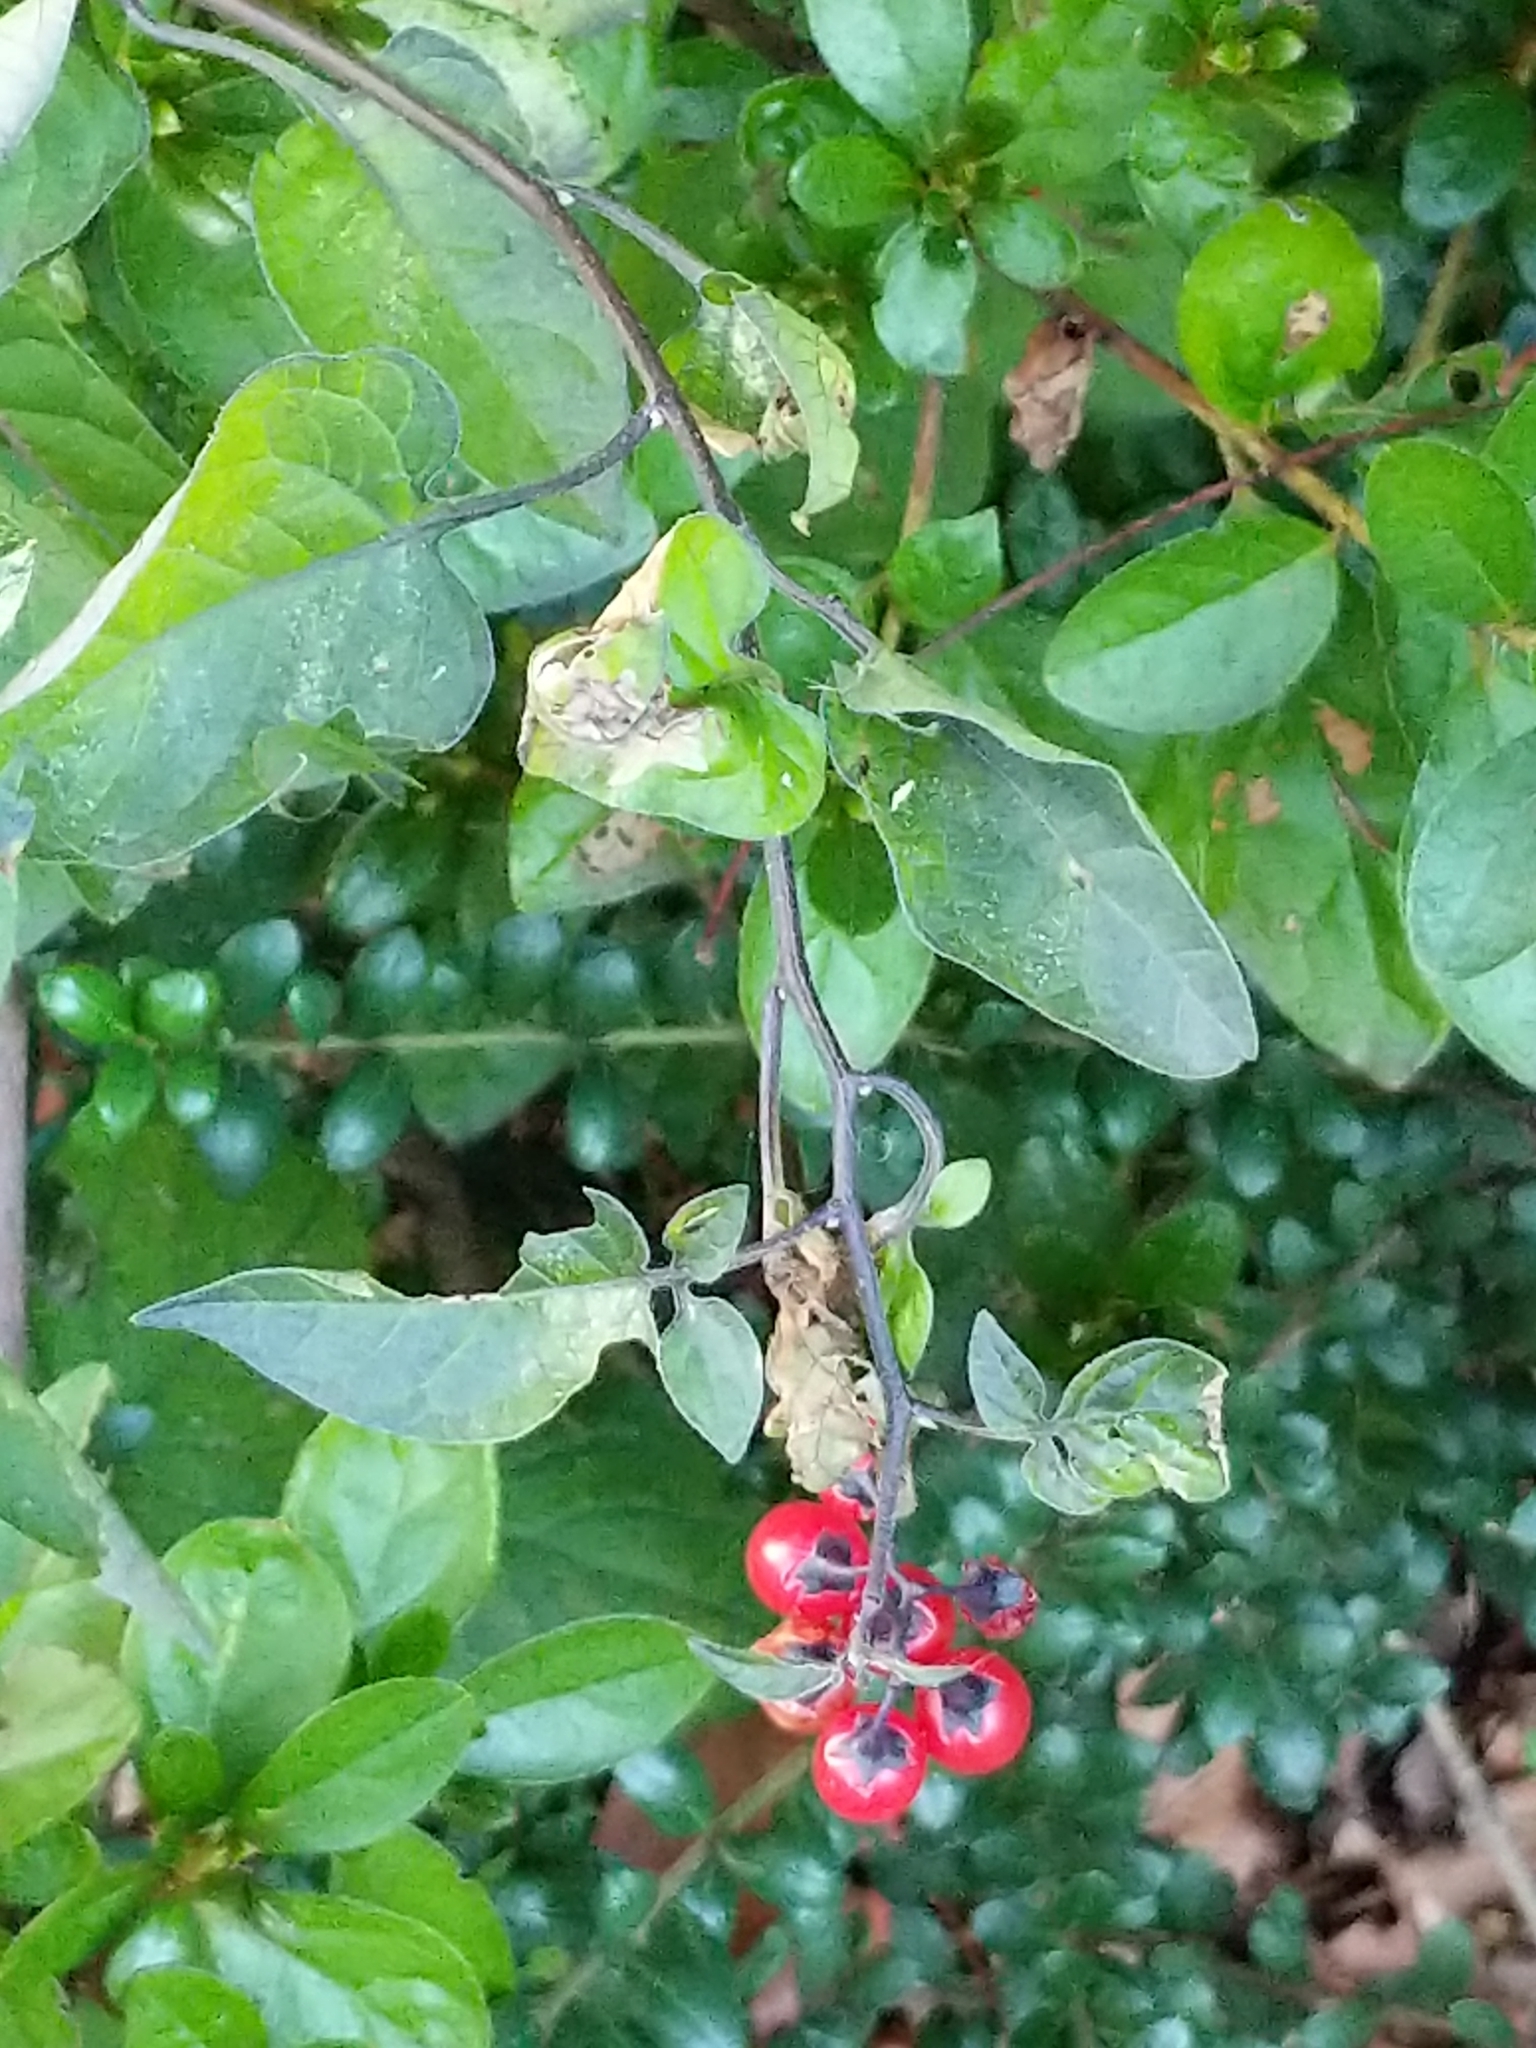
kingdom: Plantae
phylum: Tracheophyta
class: Magnoliopsida
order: Solanales
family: Solanaceae
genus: Solanum
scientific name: Solanum dulcamara
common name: Climbing nightshade
